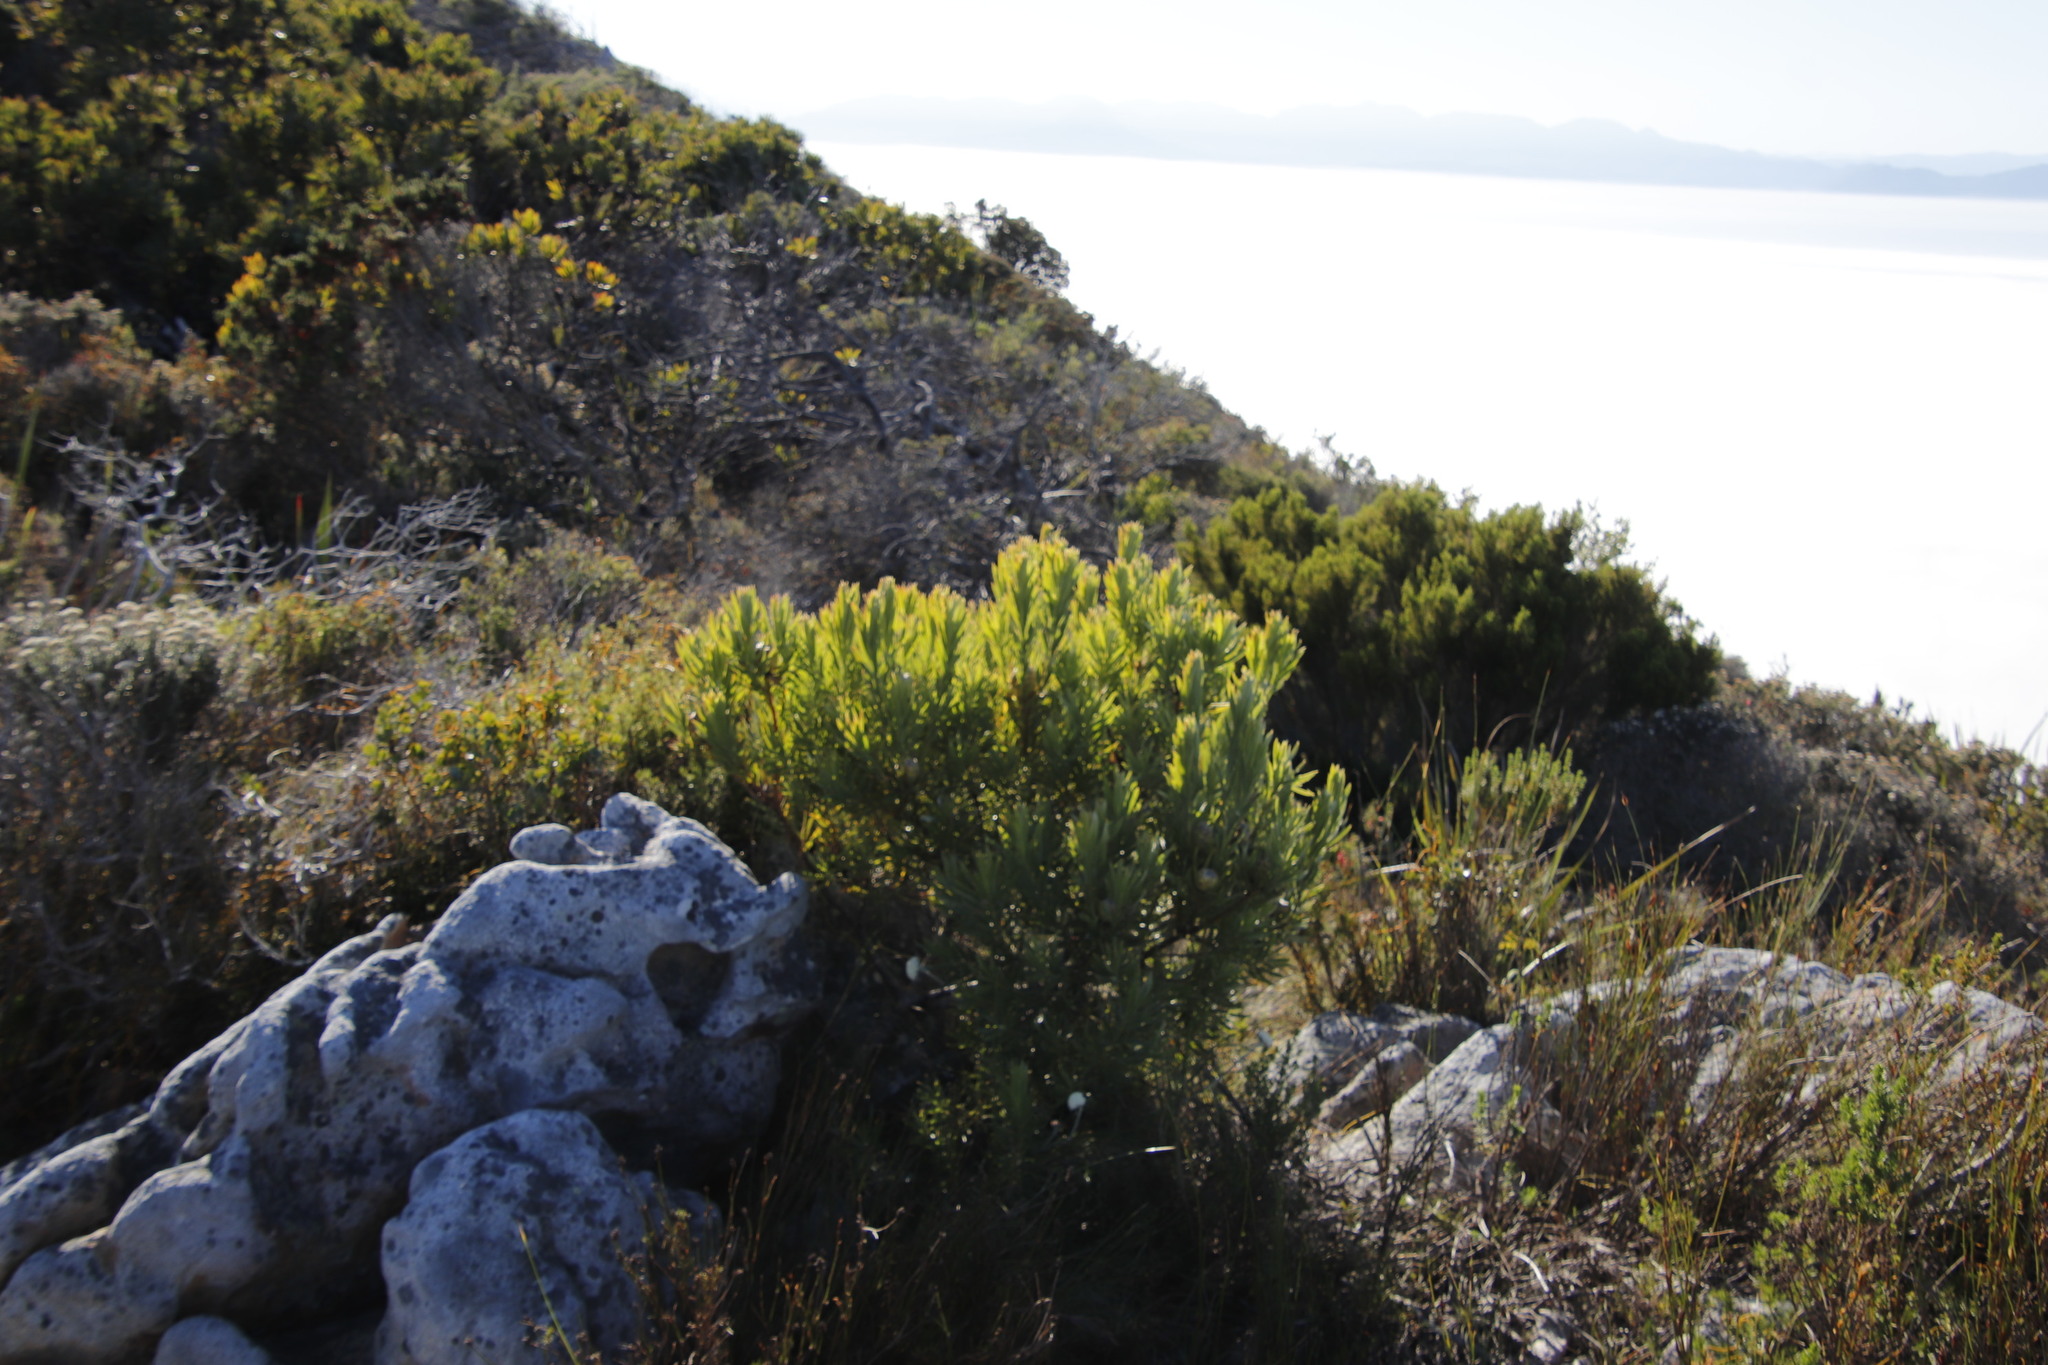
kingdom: Plantae
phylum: Tracheophyta
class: Magnoliopsida
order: Proteales
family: Proteaceae
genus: Leucadendron
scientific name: Leucadendron xanthoconus
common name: Sickle-leaf conebush
